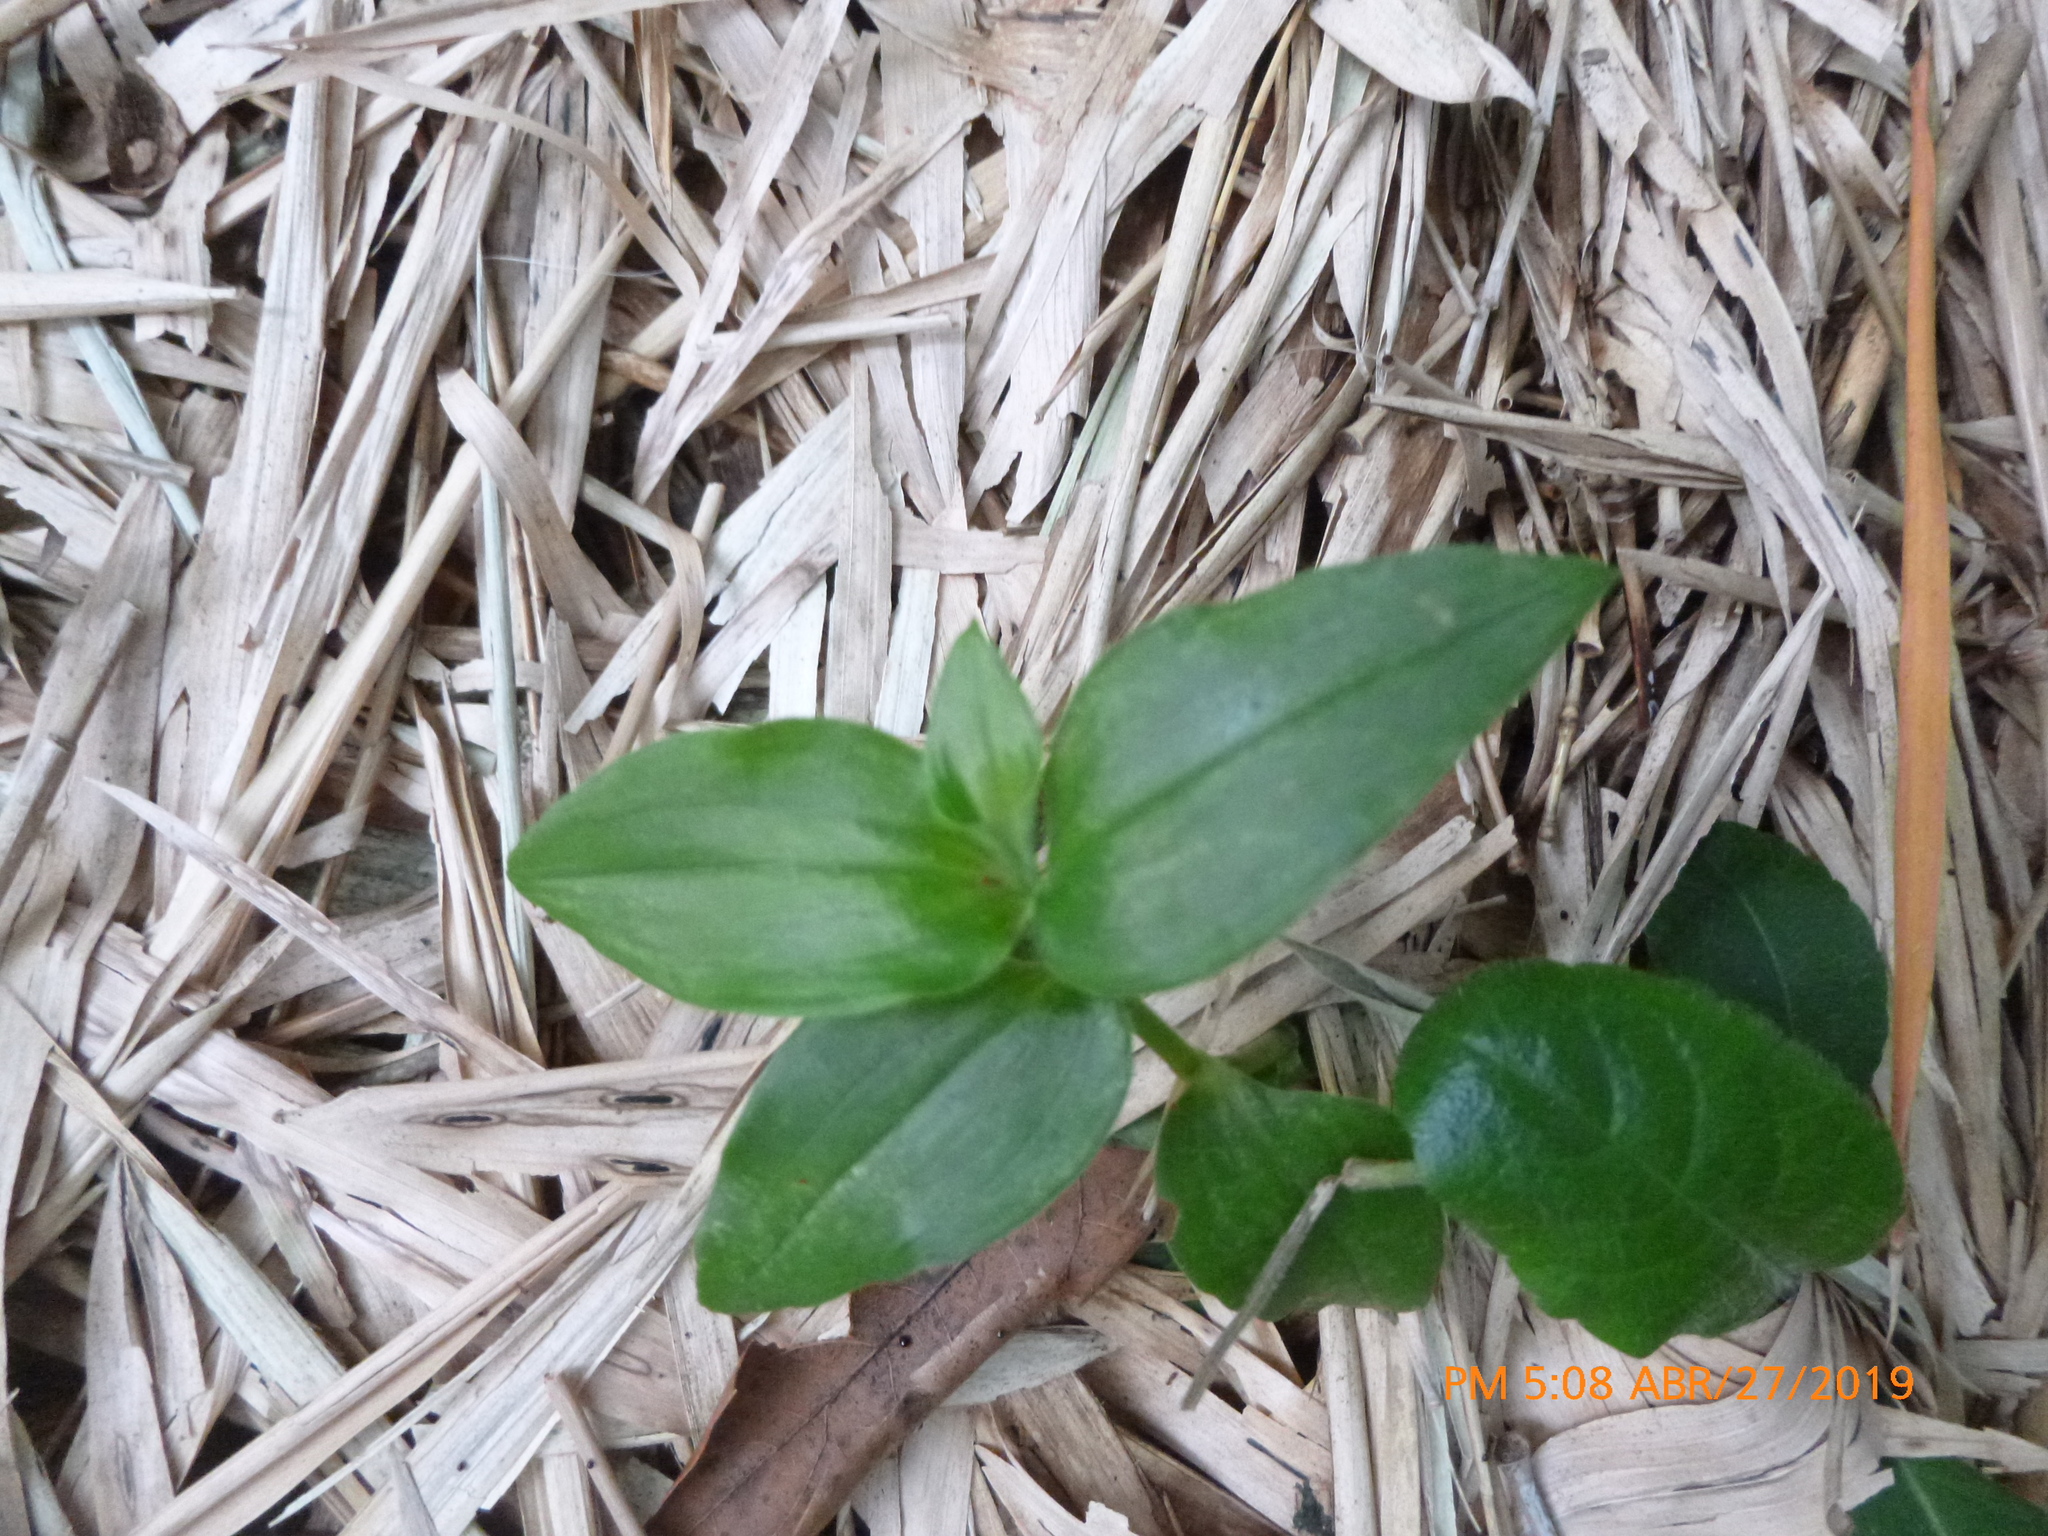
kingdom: Plantae
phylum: Tracheophyta
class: Liliopsida
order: Commelinales
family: Commelinaceae
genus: Commelina
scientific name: Commelina erecta
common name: Blousel blommetjie
